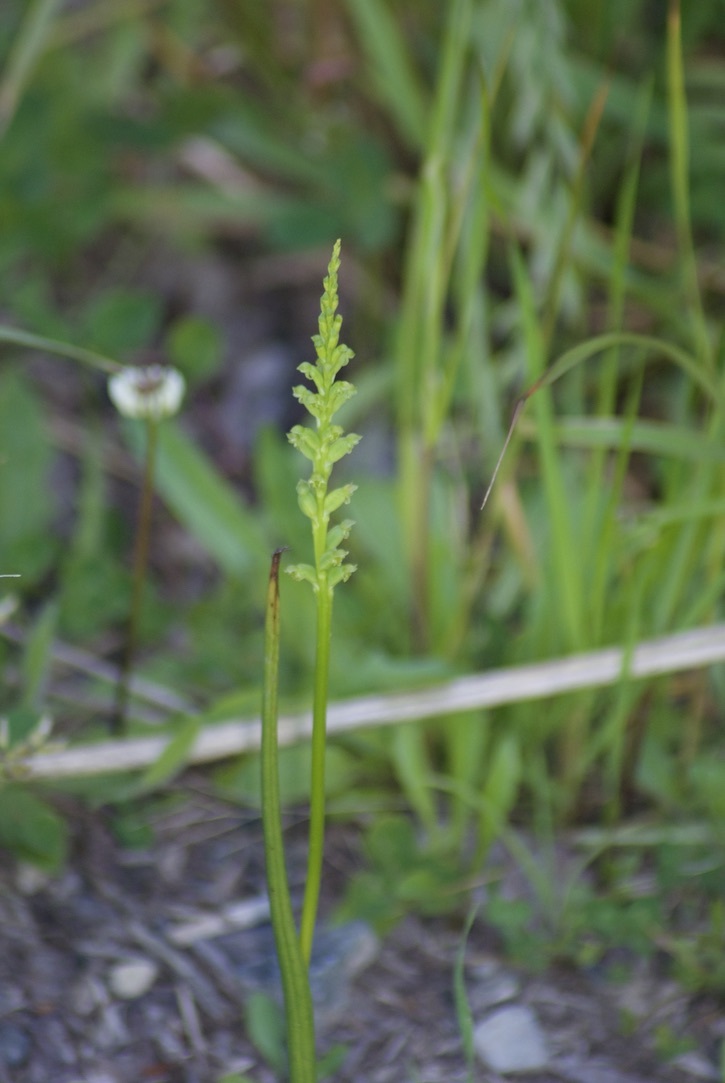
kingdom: Plantae
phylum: Tracheophyta
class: Liliopsida
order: Asparagales
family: Orchidaceae
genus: Microtis
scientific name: Microtis unifolia
